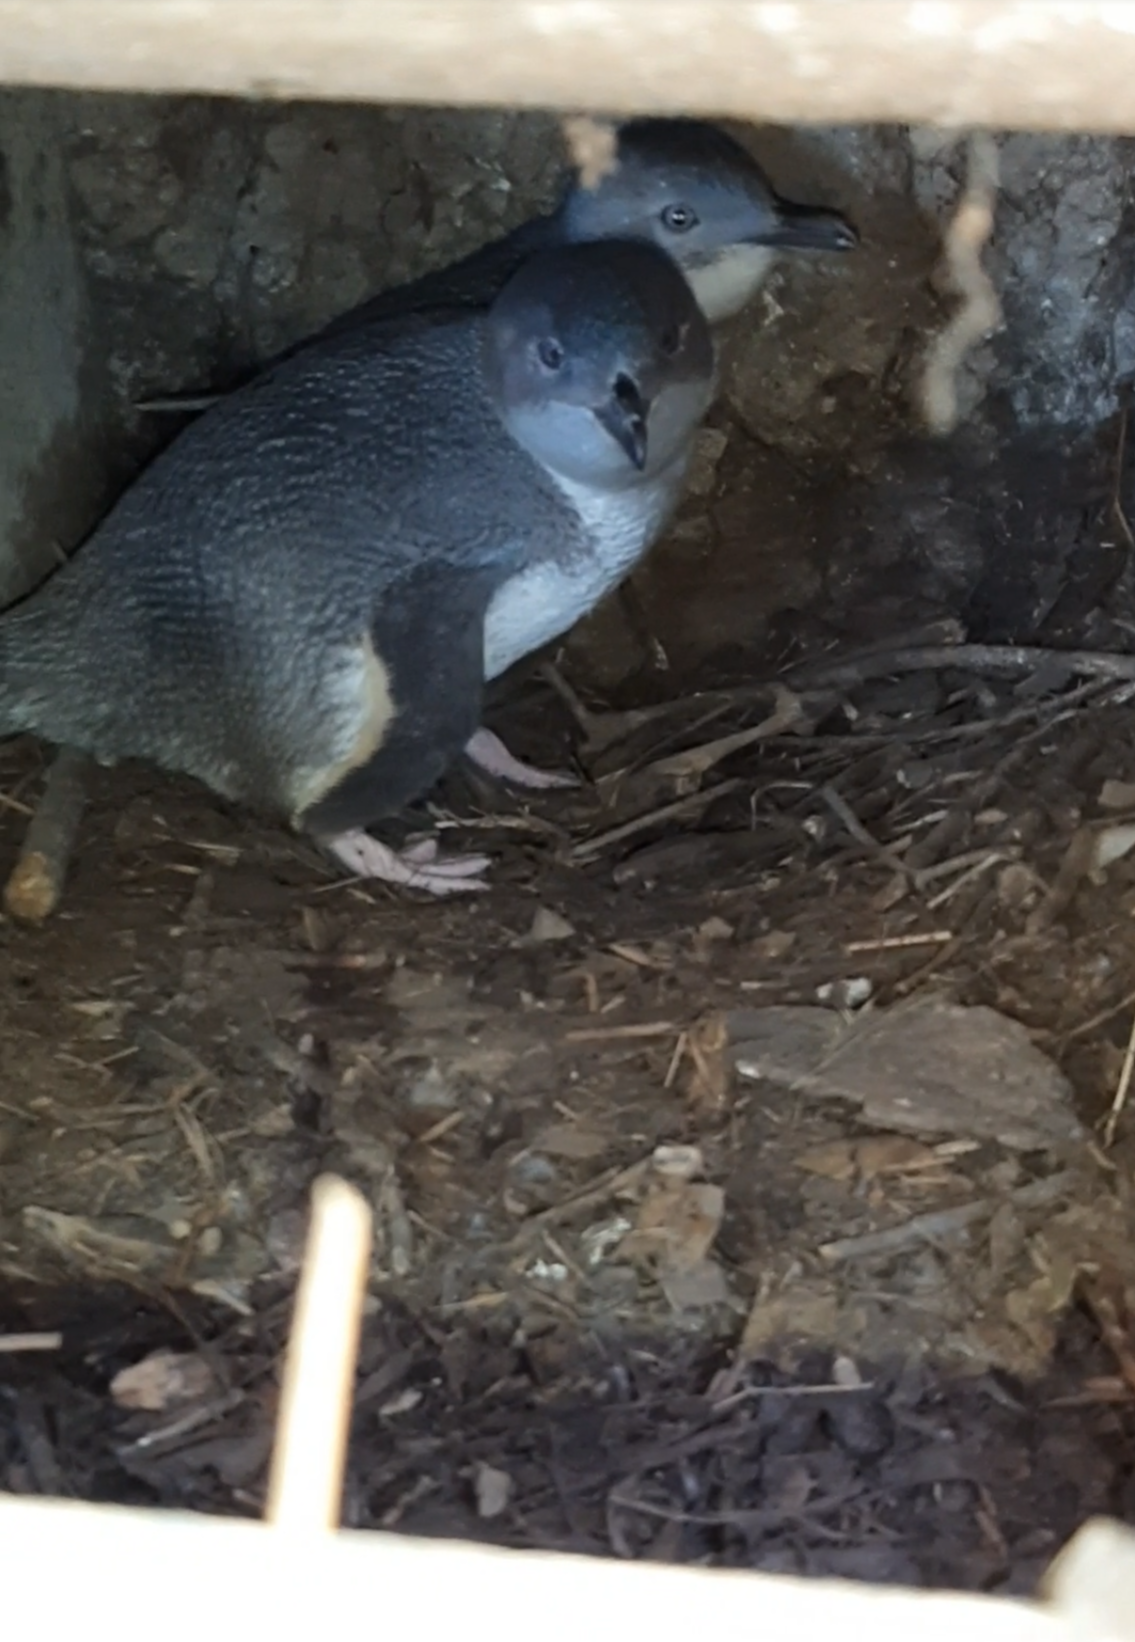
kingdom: Animalia
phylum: Chordata
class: Aves
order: Sphenisciformes
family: Spheniscidae
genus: Eudyptula
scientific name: Eudyptula minor
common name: Little penguin
